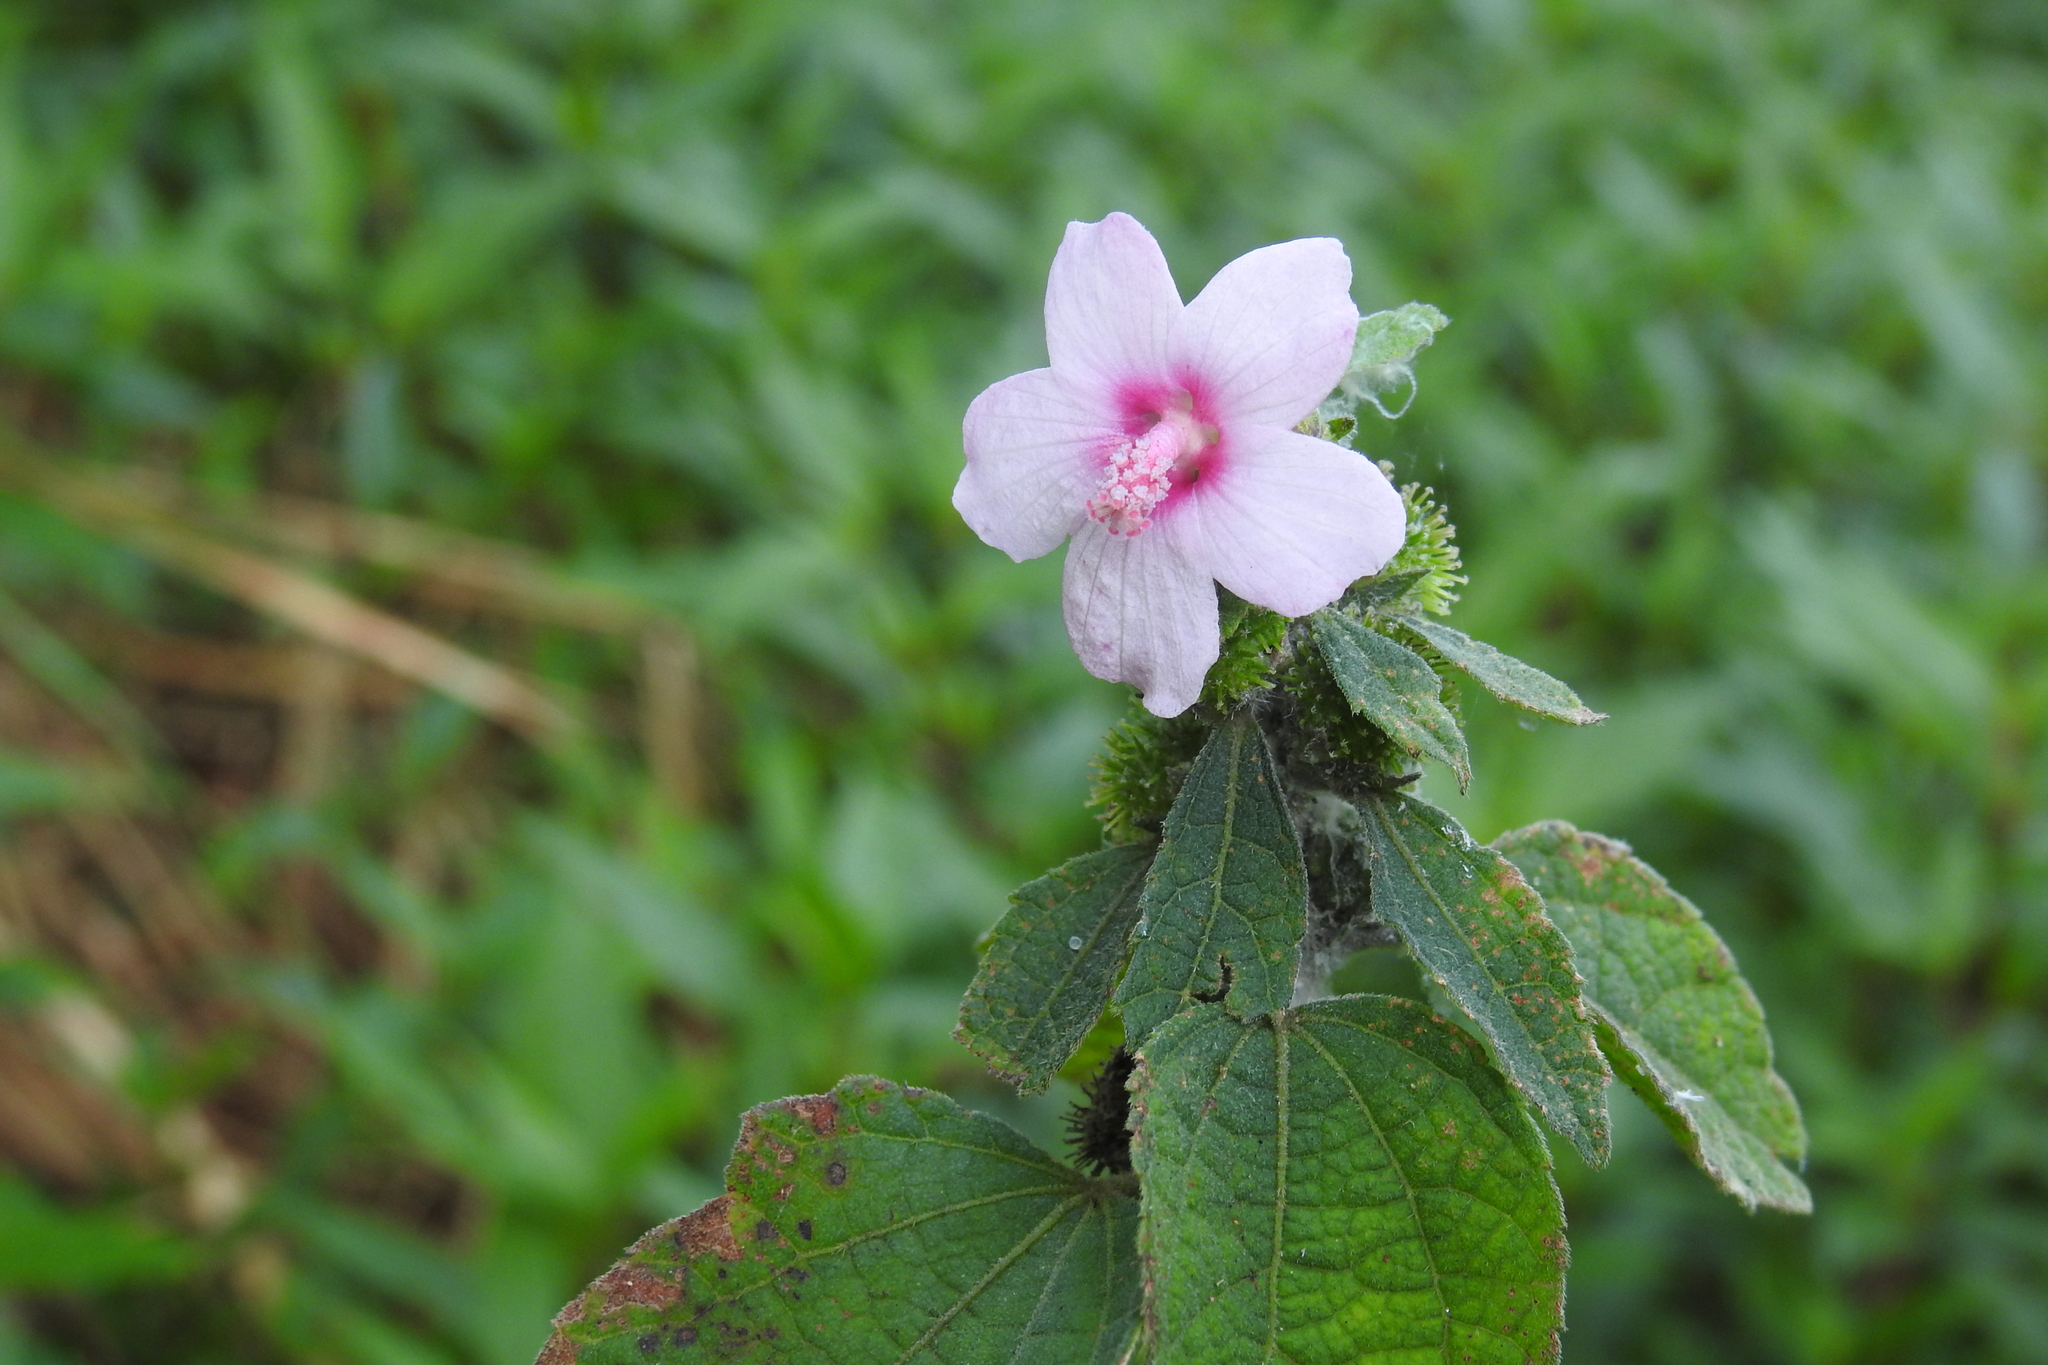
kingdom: Plantae
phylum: Tracheophyta
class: Magnoliopsida
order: Malvales
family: Malvaceae
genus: Urena
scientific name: Urena lobata
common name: Caesarweed
